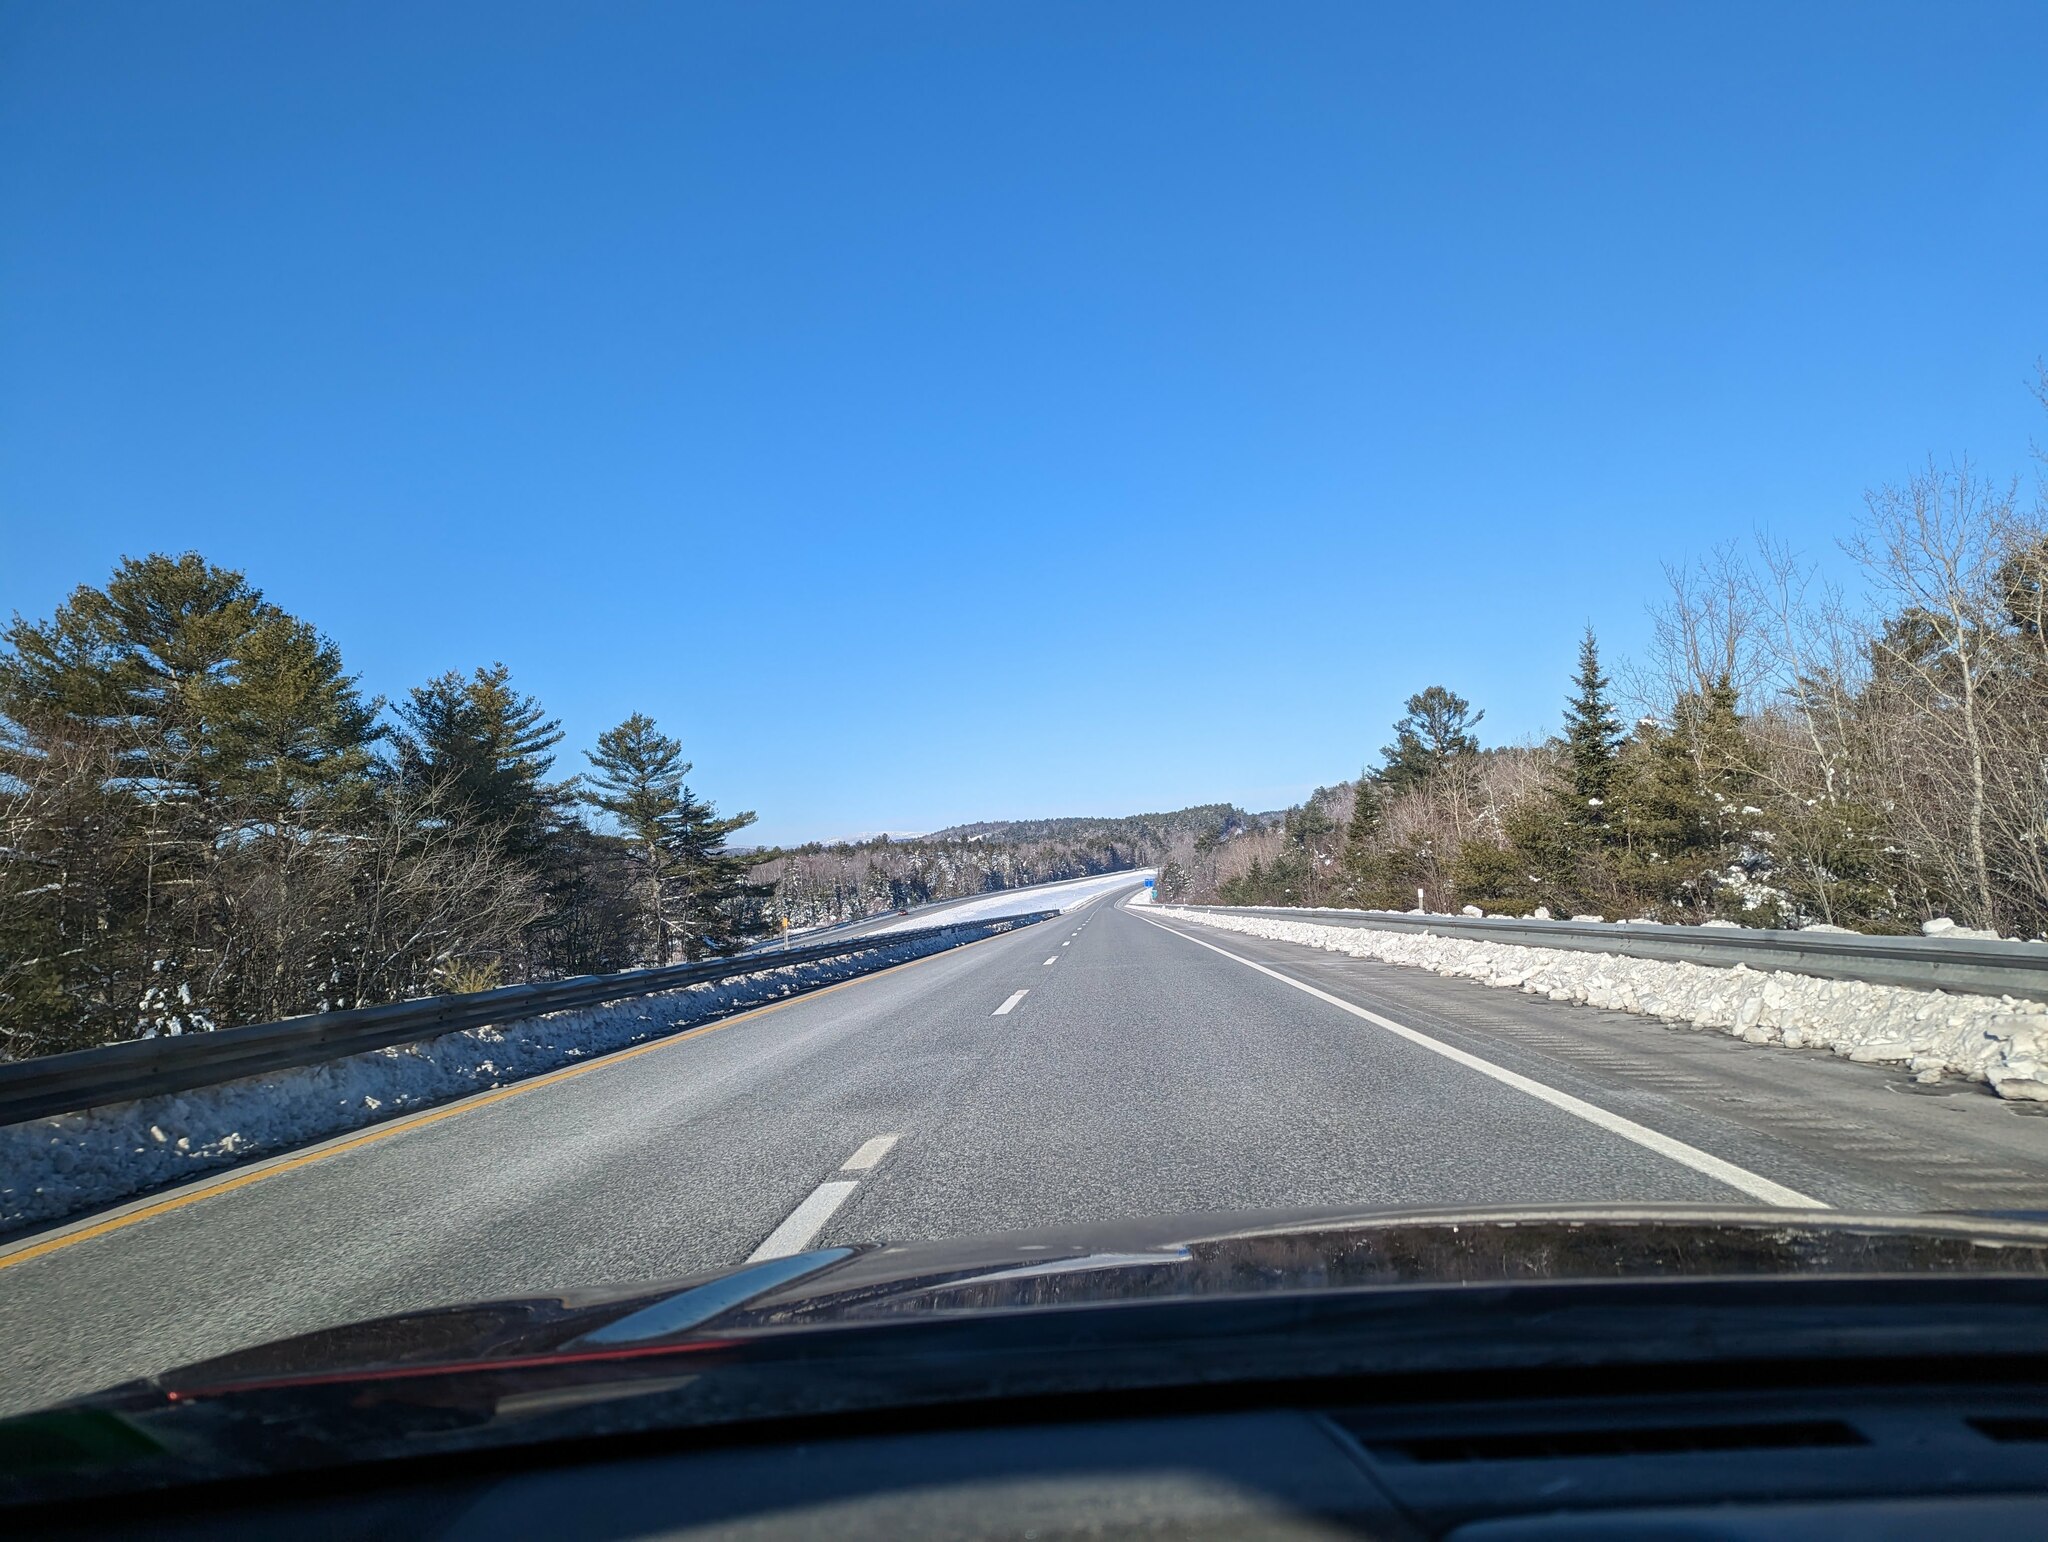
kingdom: Plantae
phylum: Tracheophyta
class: Pinopsida
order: Pinales
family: Pinaceae
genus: Pinus
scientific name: Pinus strobus
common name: Weymouth pine
